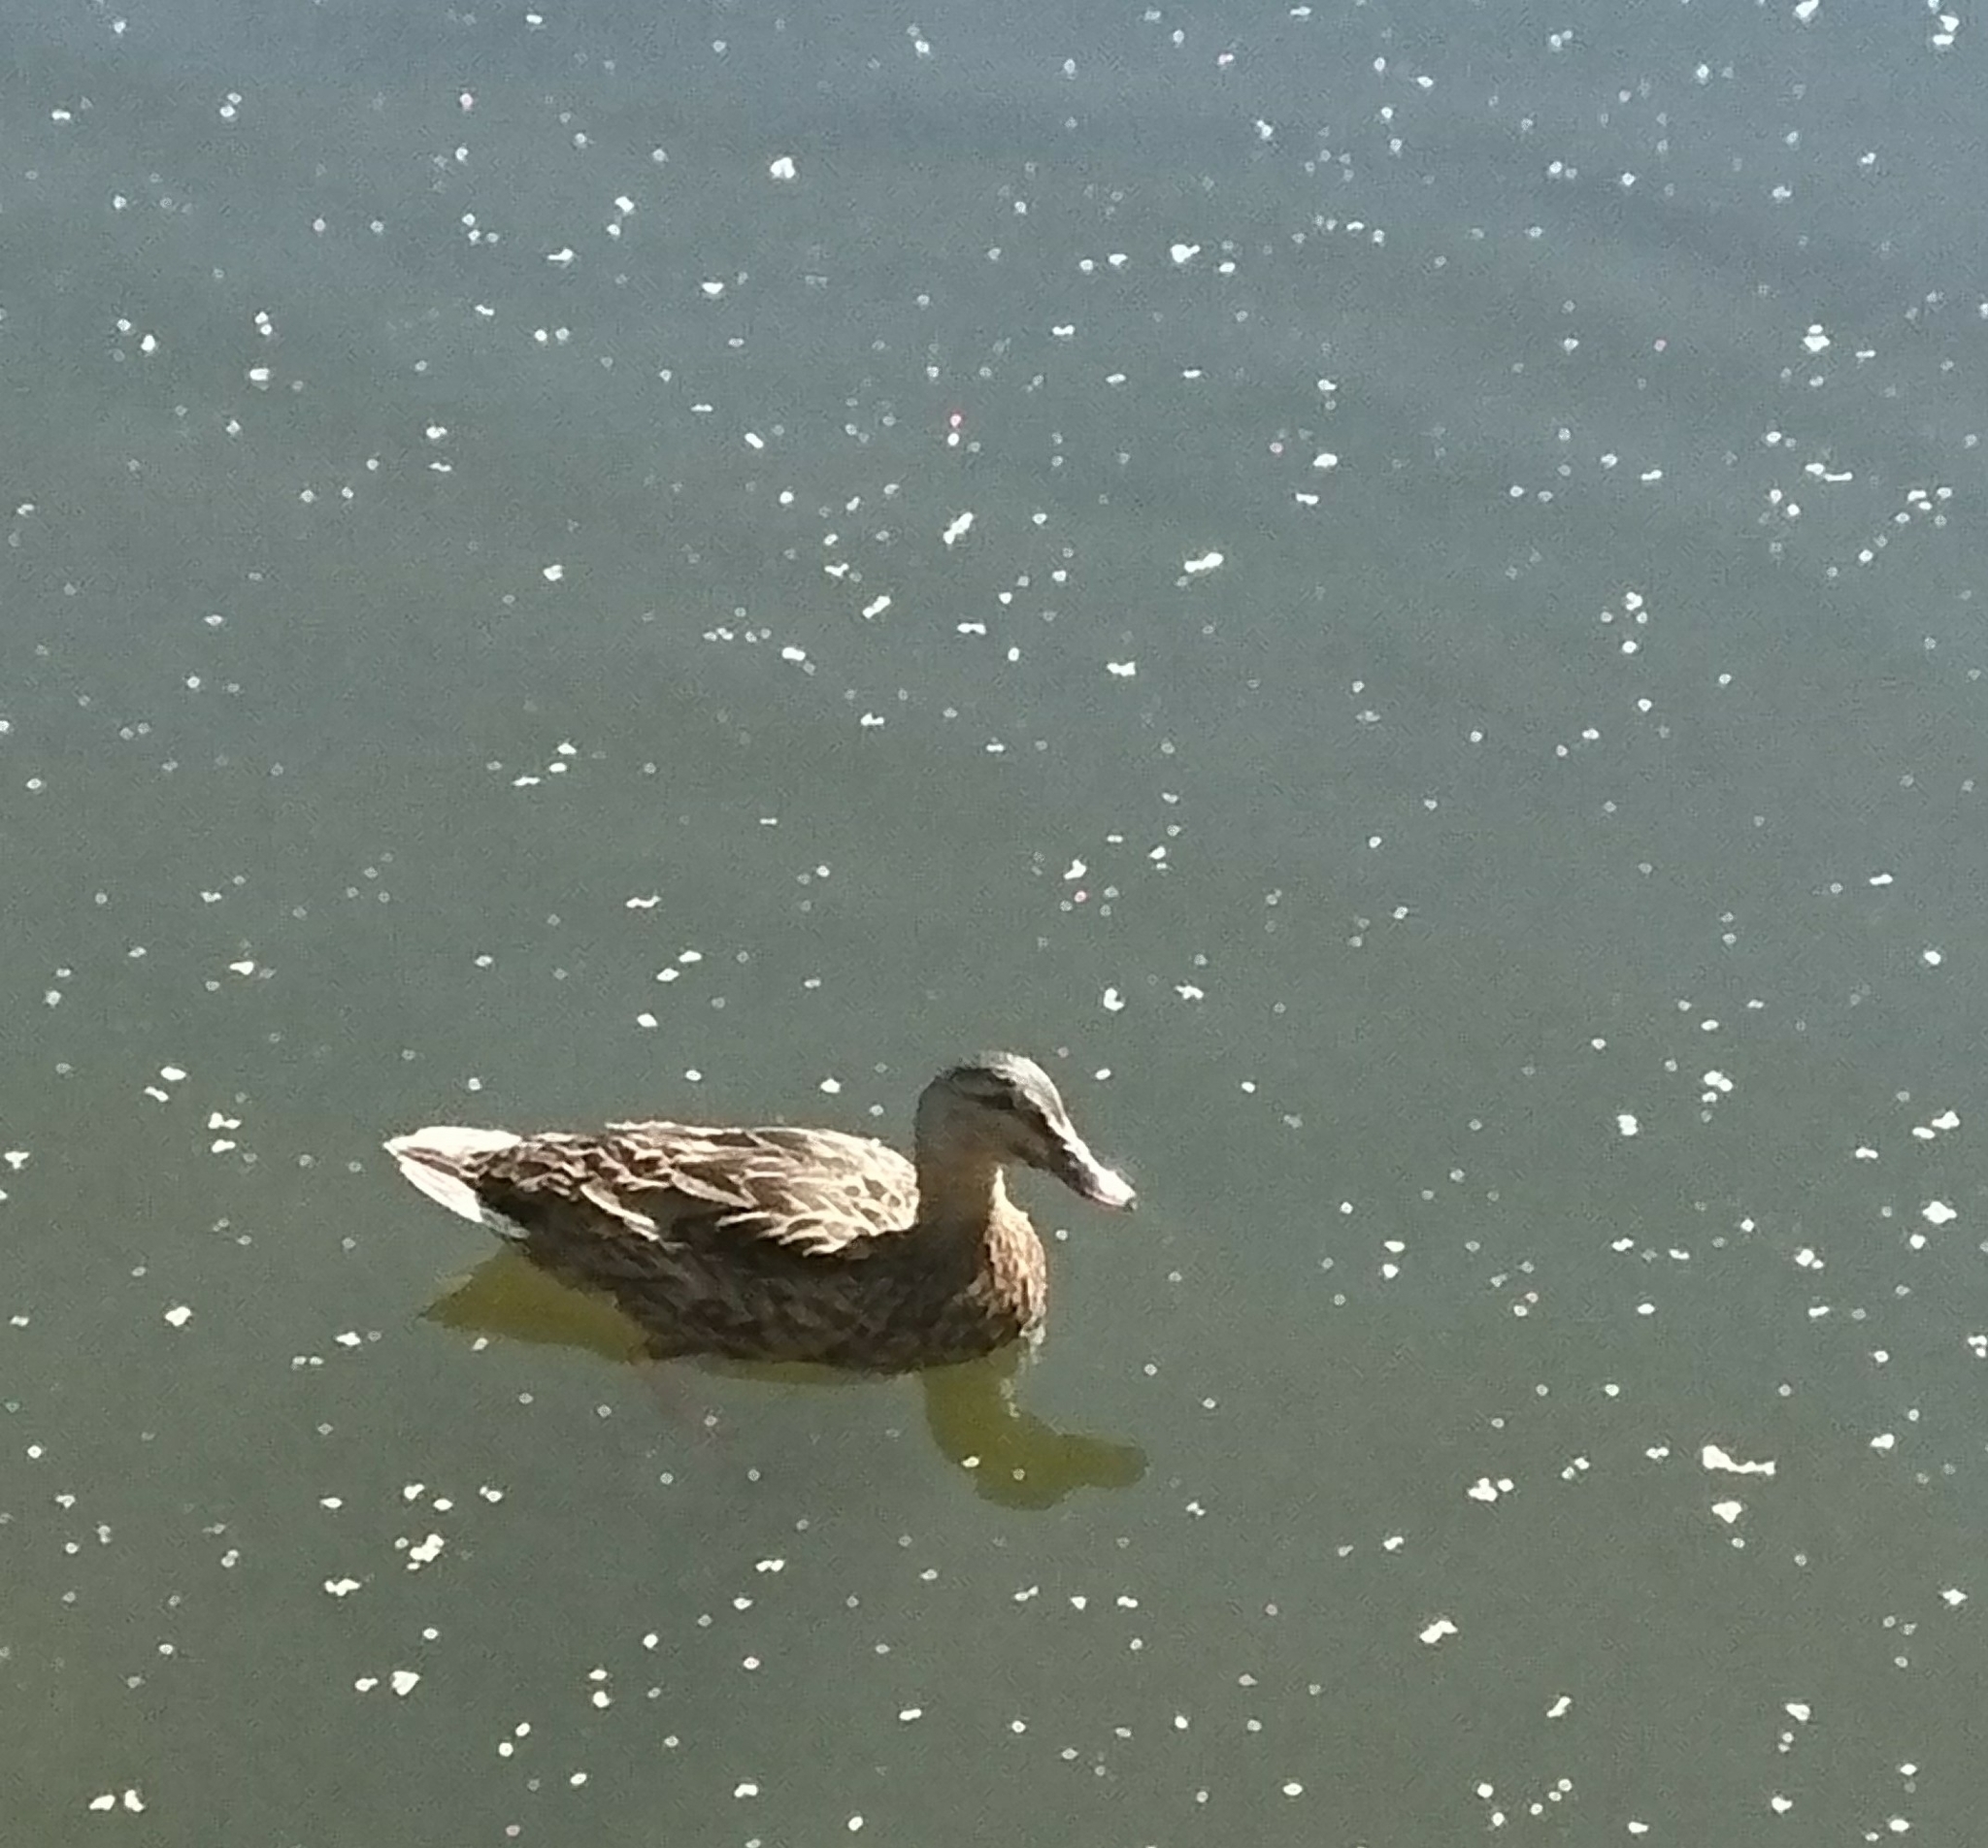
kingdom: Animalia
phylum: Chordata
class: Aves
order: Anseriformes
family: Anatidae
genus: Anas
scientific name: Anas platyrhynchos
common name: Mallard
